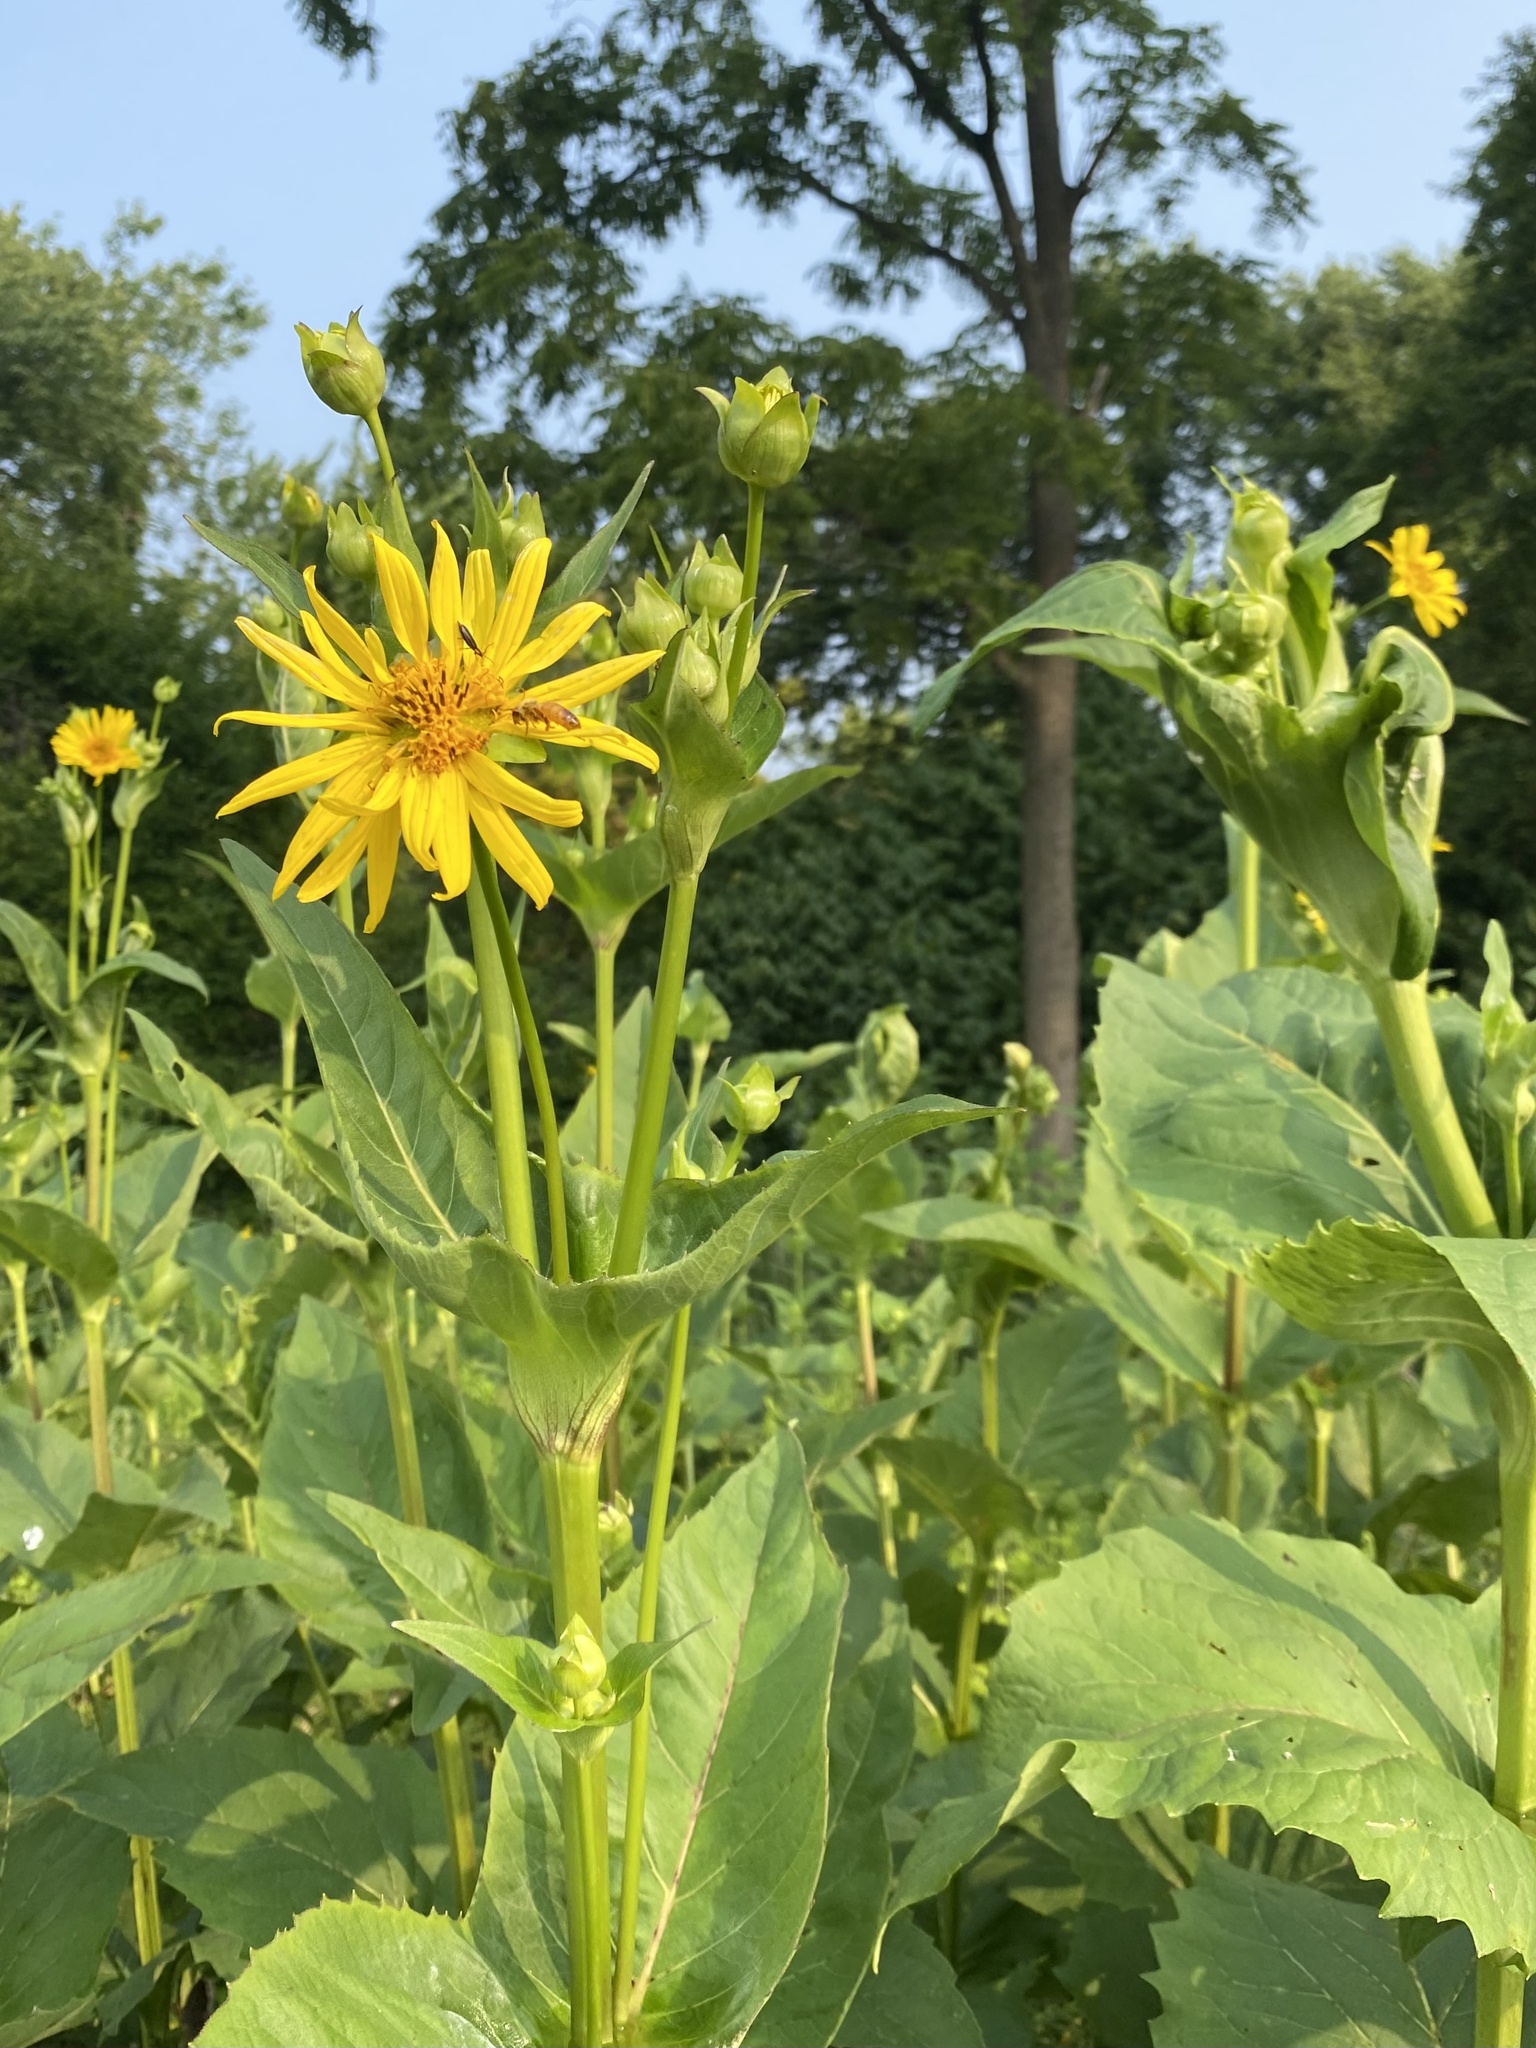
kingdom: Plantae
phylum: Tracheophyta
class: Magnoliopsida
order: Asterales
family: Asteraceae
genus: Silphium
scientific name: Silphium perfoliatum
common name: Cup-plant
